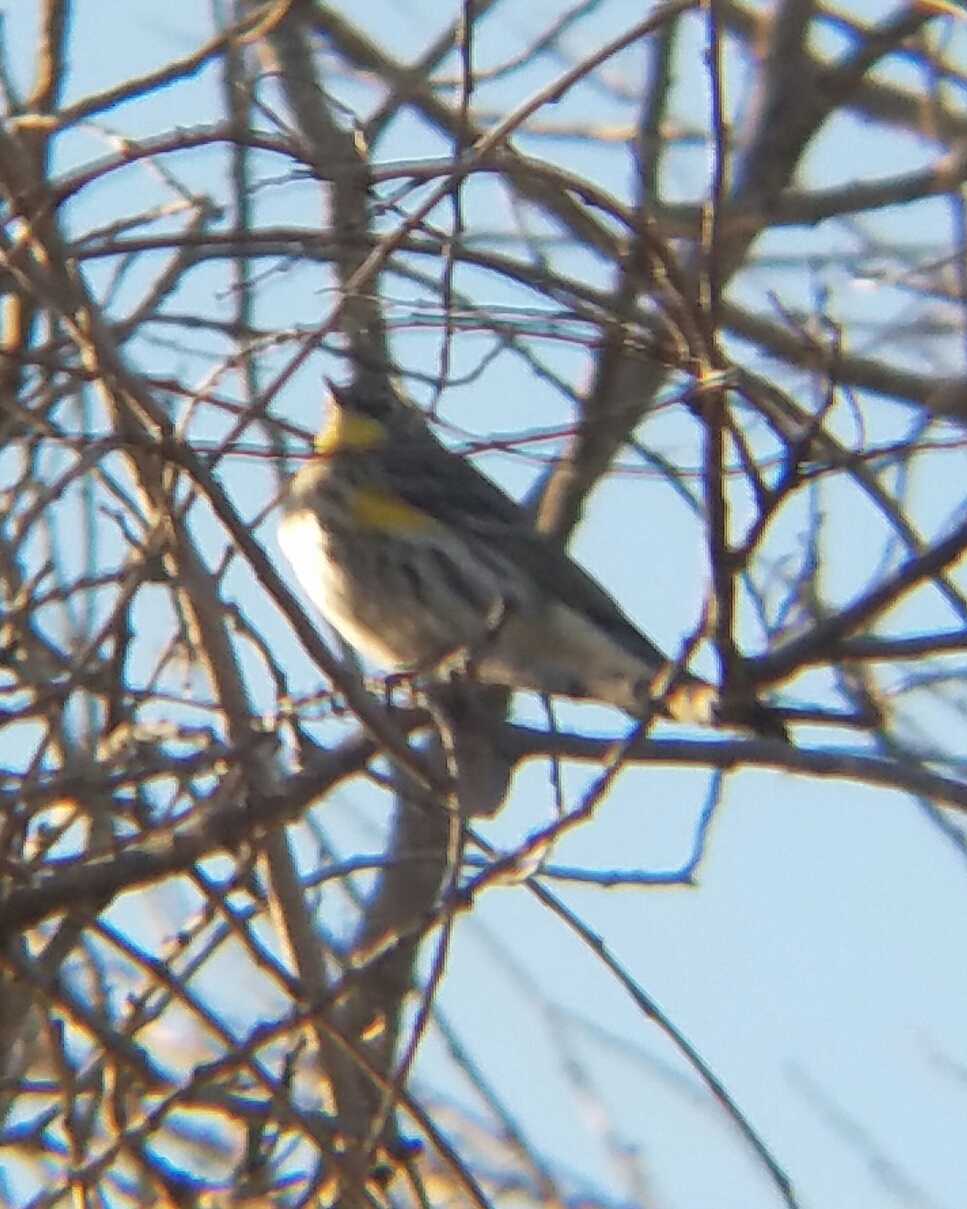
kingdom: Animalia
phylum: Chordata
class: Aves
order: Passeriformes
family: Parulidae
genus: Setophaga
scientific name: Setophaga coronata
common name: Myrtle warbler
